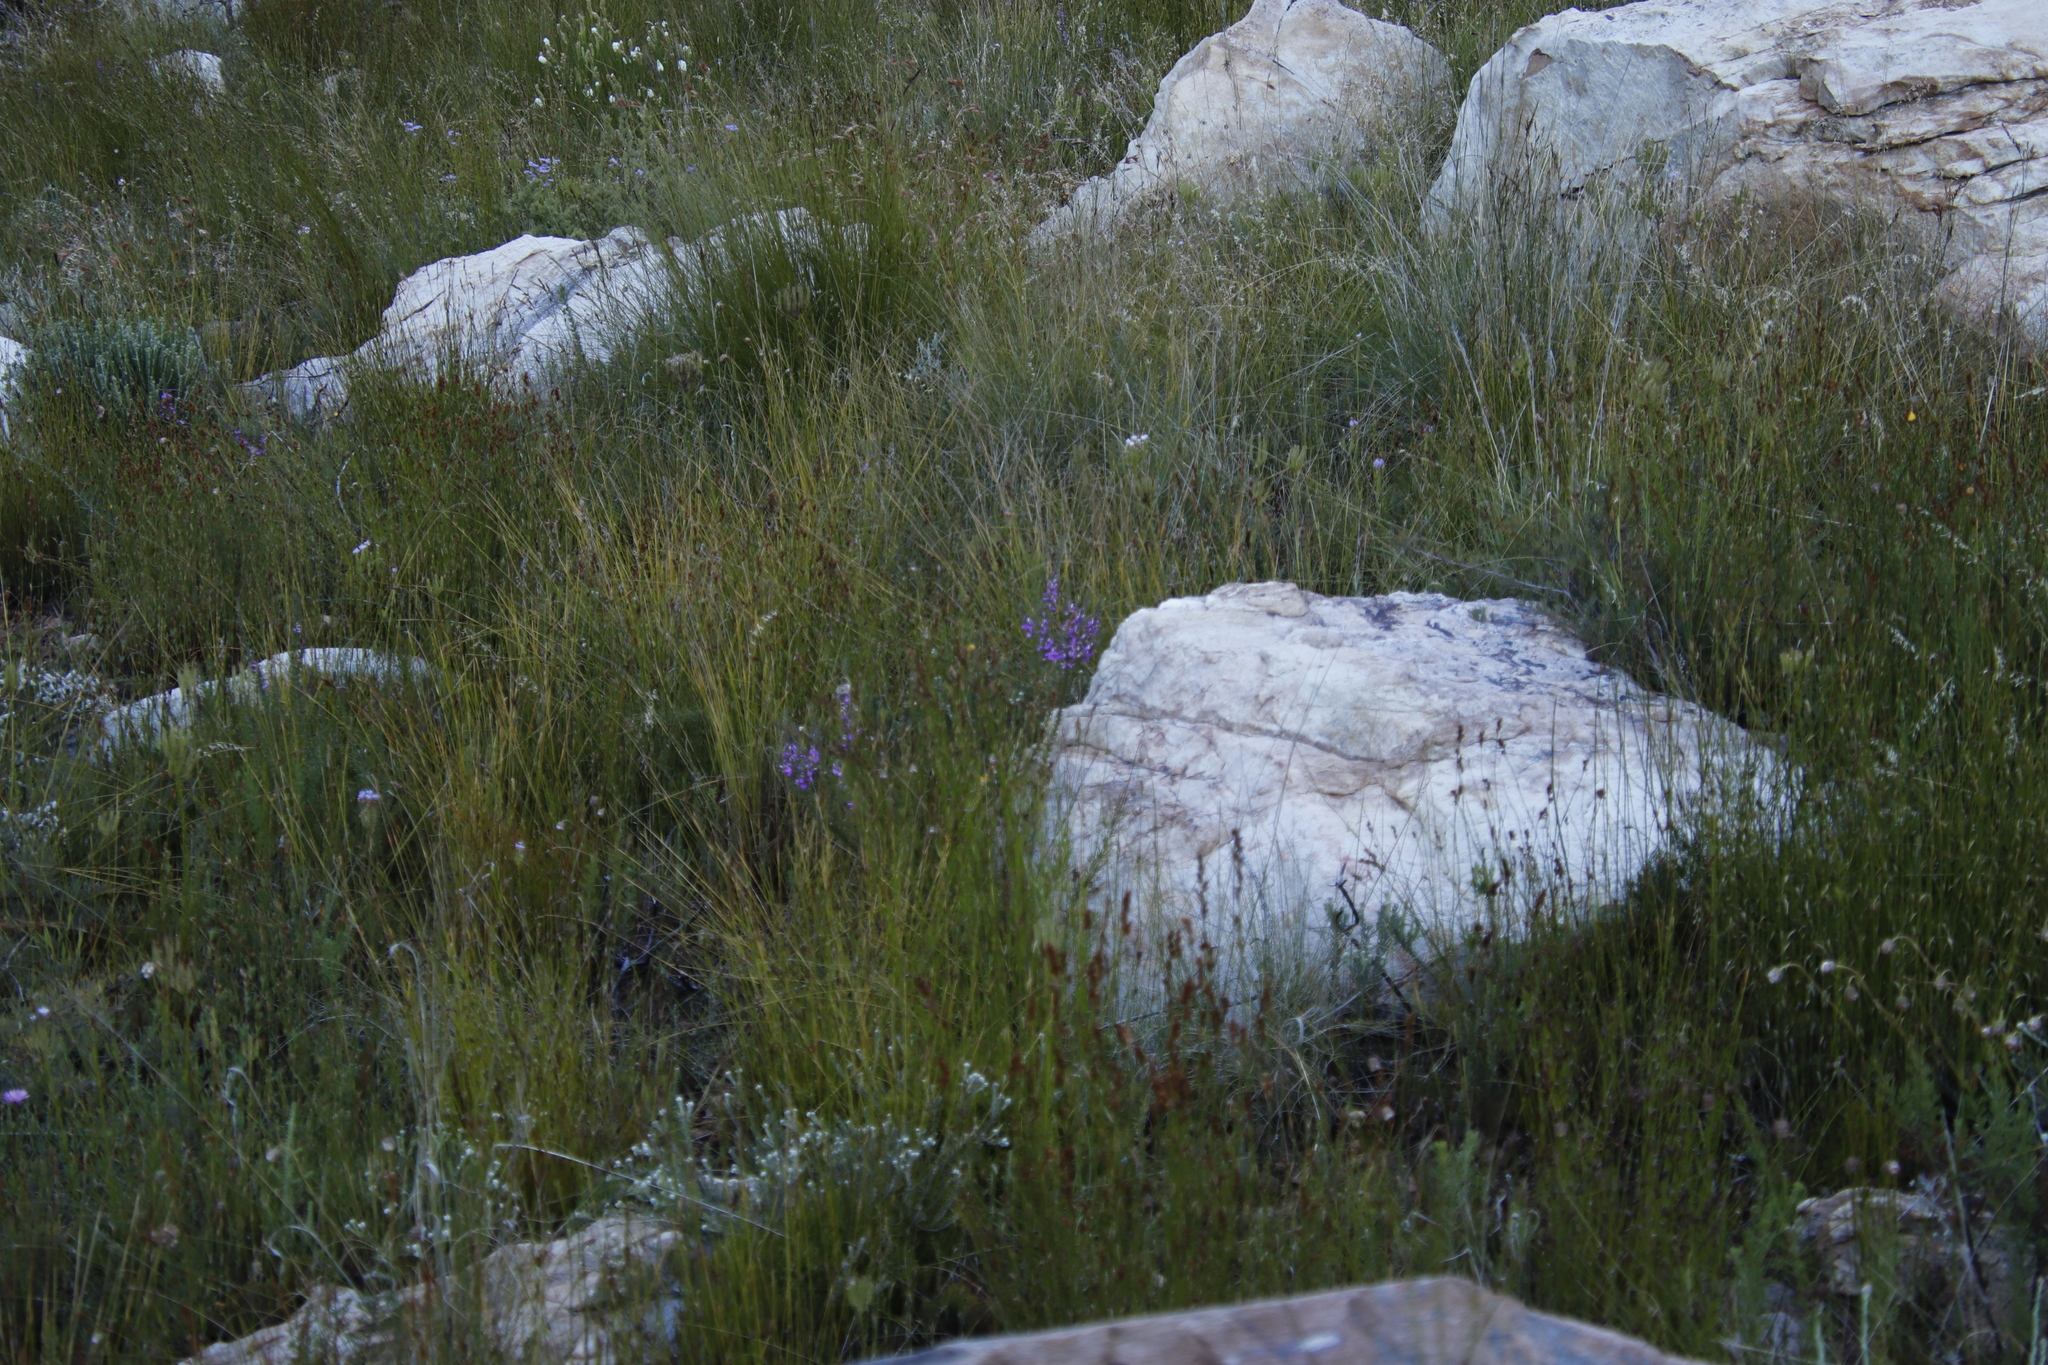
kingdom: Plantae
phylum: Tracheophyta
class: Magnoliopsida
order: Fabales
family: Polygalaceae
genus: Muraltia
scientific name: Muraltia heisteria
